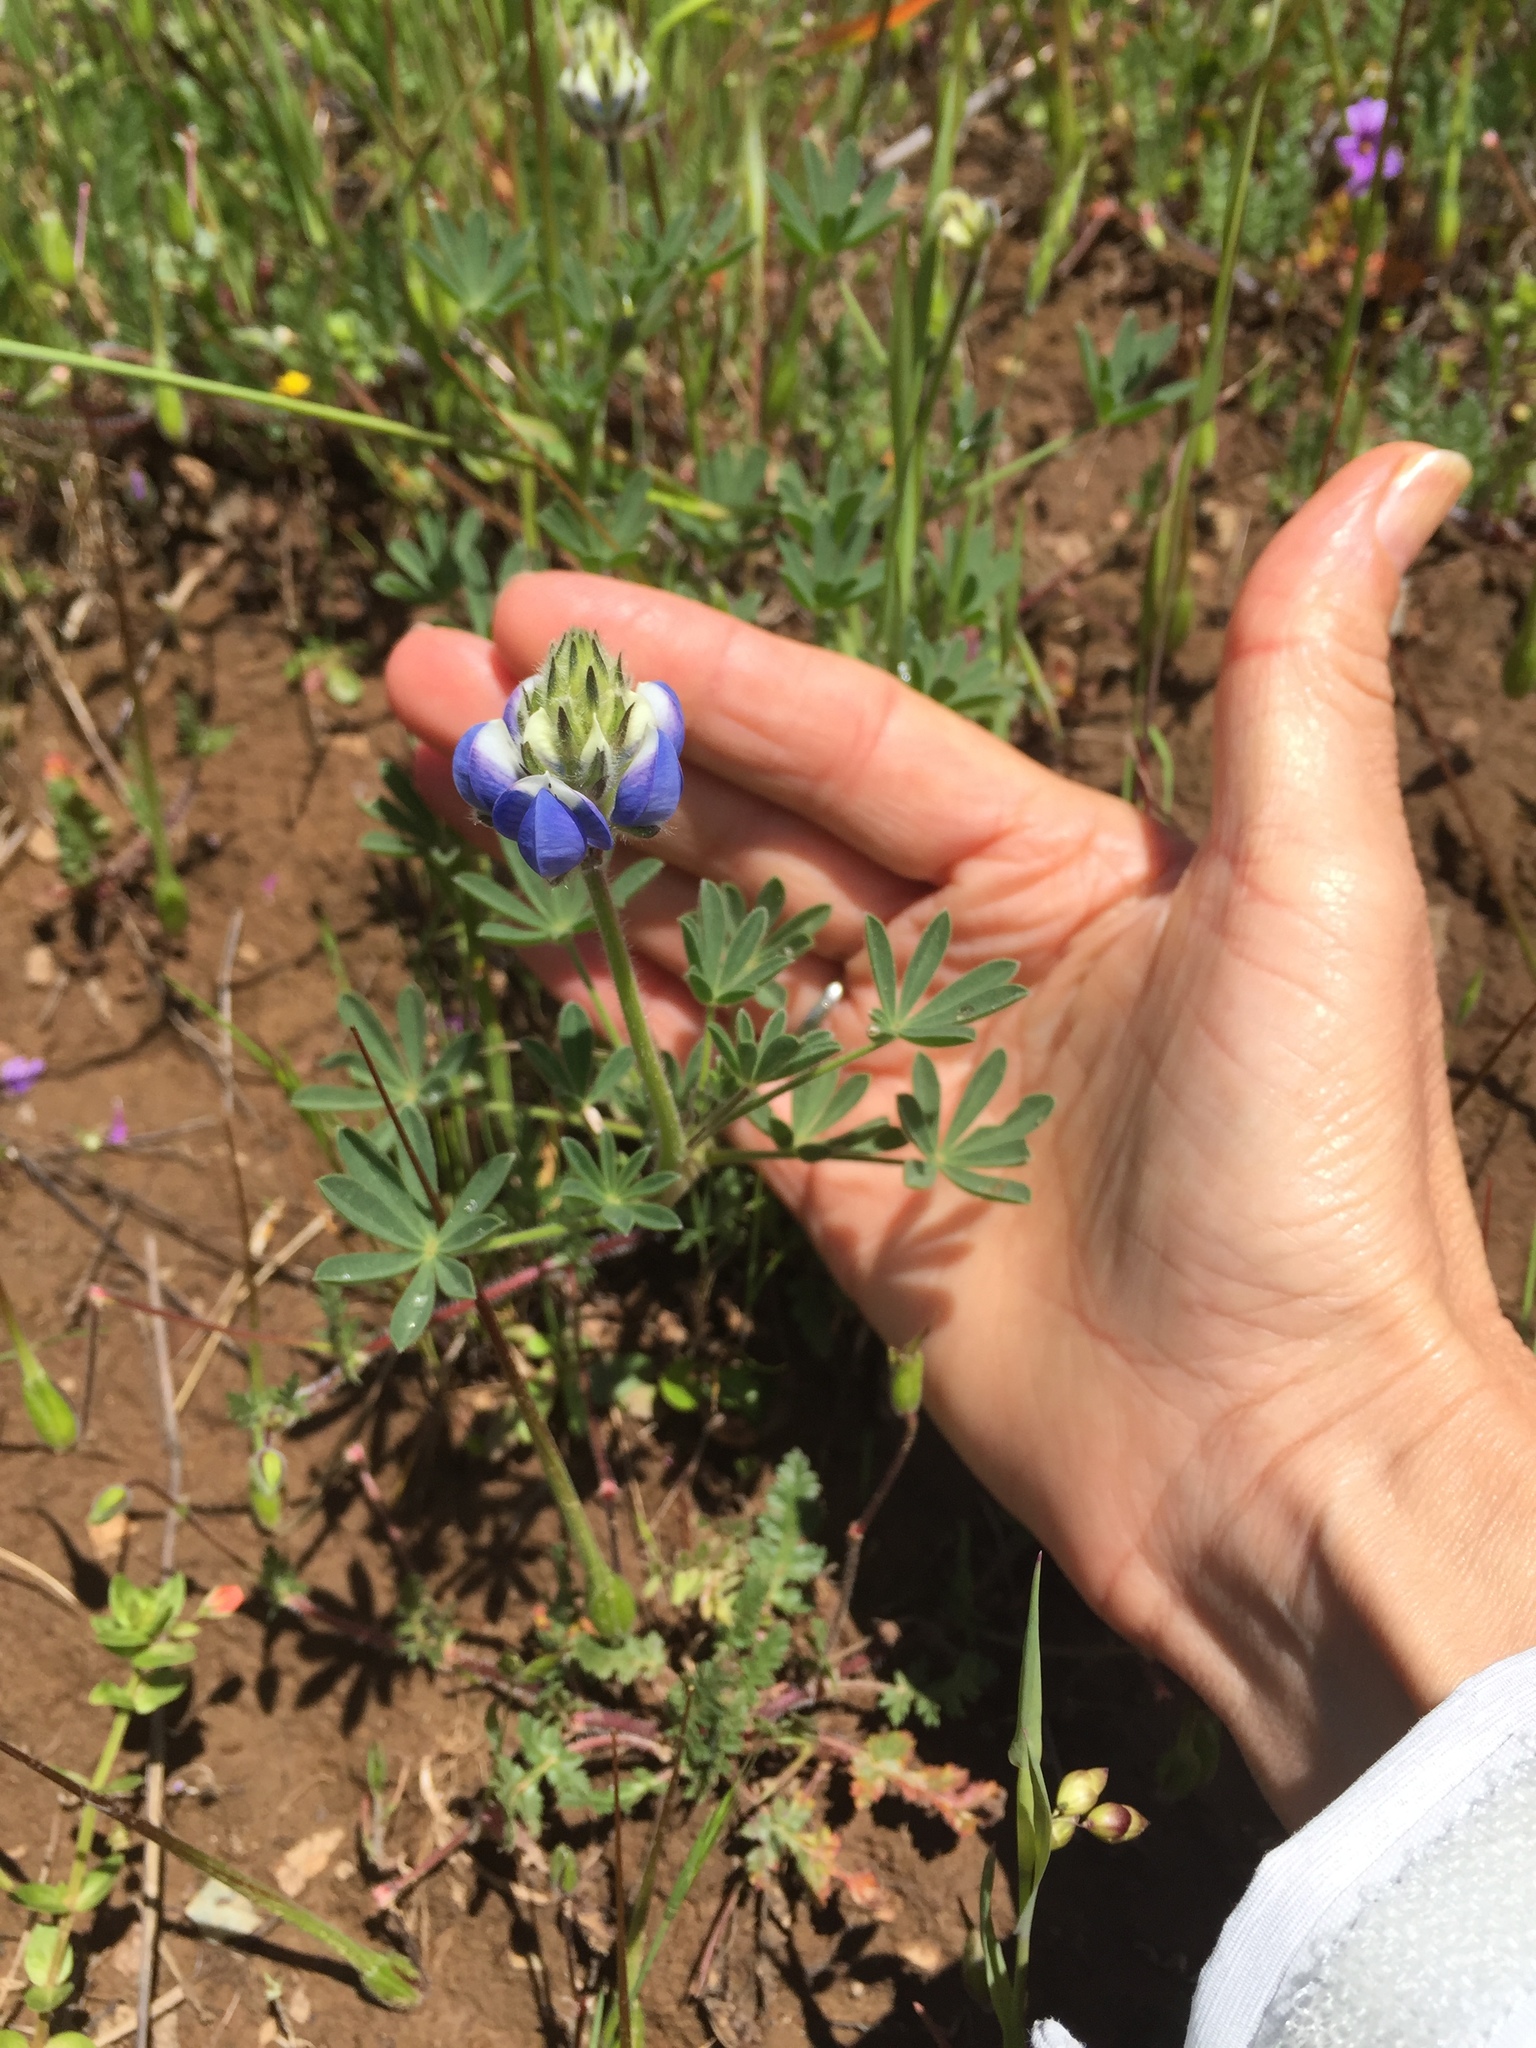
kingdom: Plantae
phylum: Tracheophyta
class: Magnoliopsida
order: Fabales
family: Fabaceae
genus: Lupinus
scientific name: Lupinus nanus
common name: Orean blue lupin
